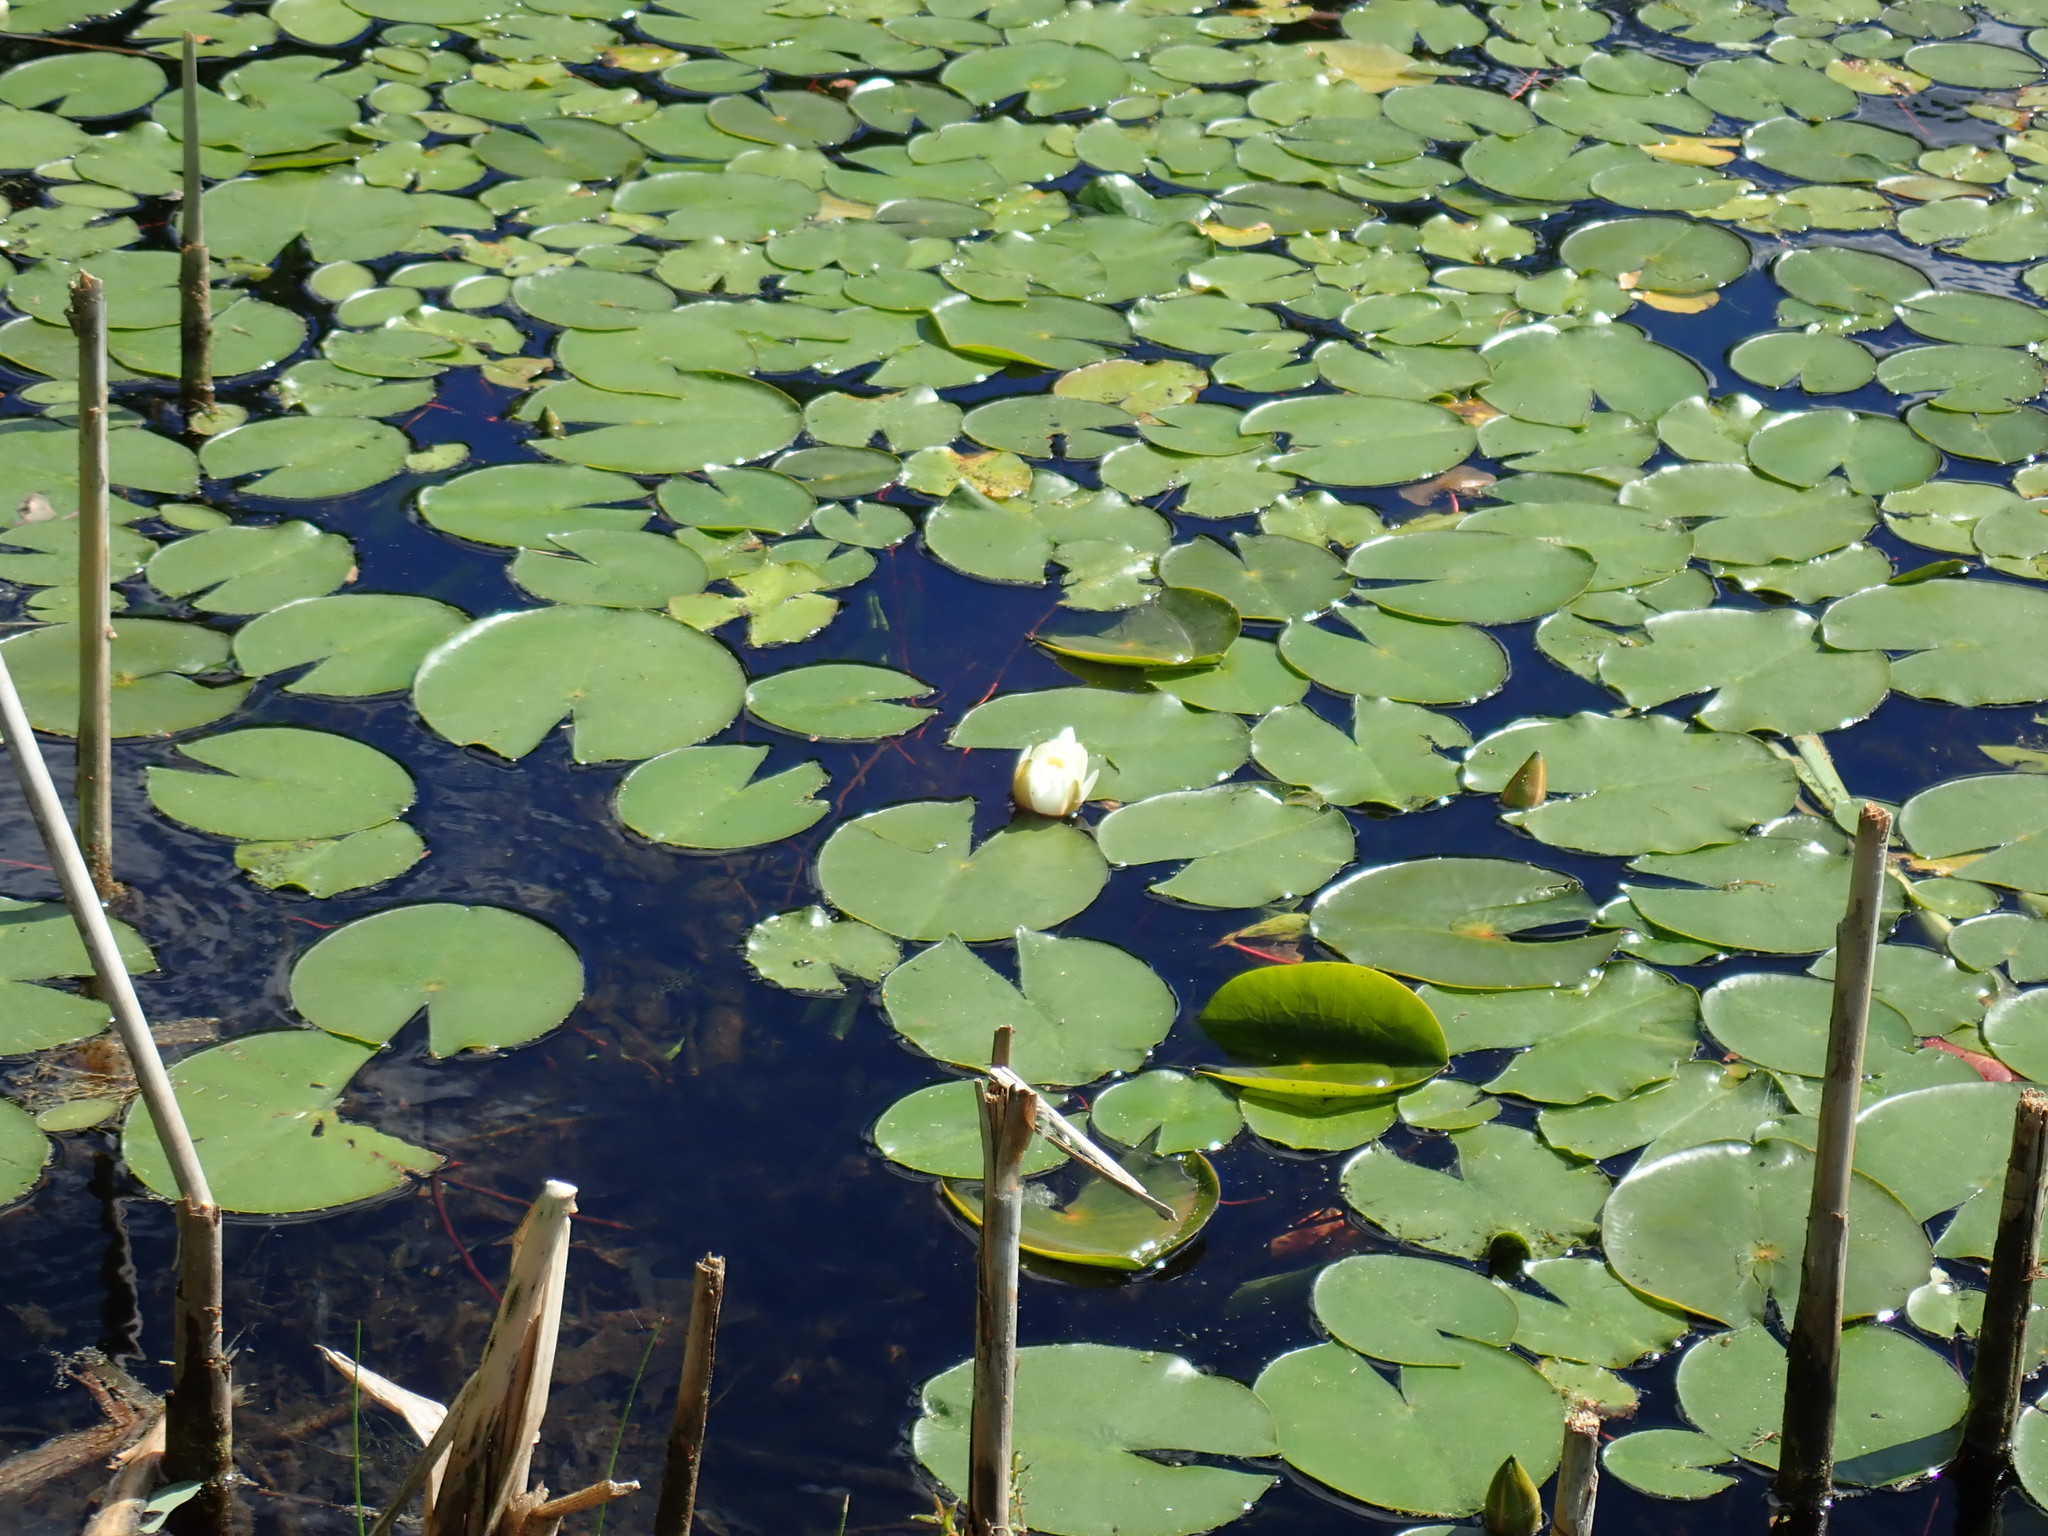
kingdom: Plantae
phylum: Tracheophyta
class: Magnoliopsida
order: Nymphaeales
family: Nymphaeaceae
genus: Nymphaea
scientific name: Nymphaea odorata
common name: Fragrant water-lily
